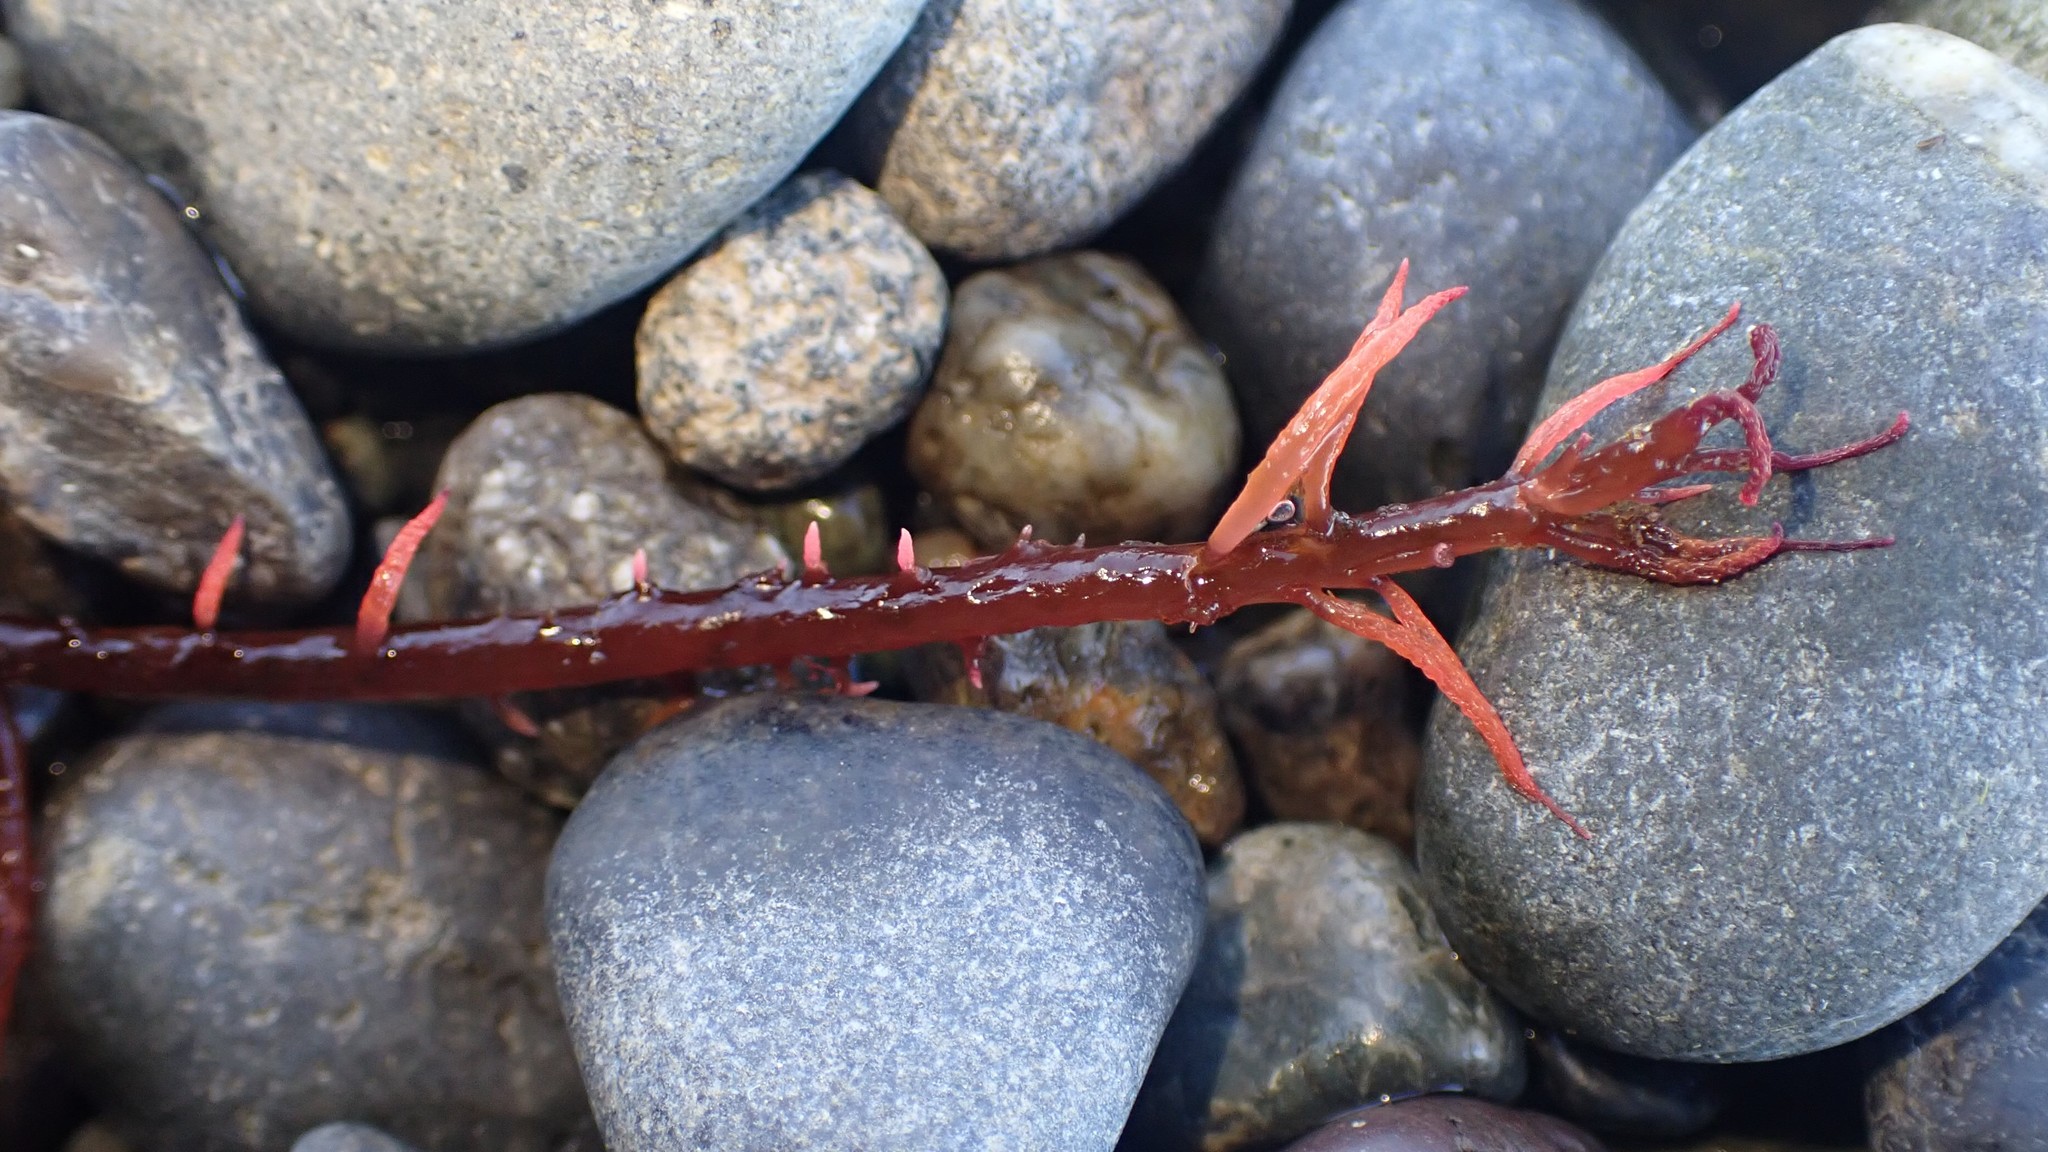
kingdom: Plantae
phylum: Rhodophyta
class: Florideophyceae
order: Gigartinales
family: Solieriaceae
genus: Sarcodiotheca
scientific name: Sarcodiotheca gaudichaudii
